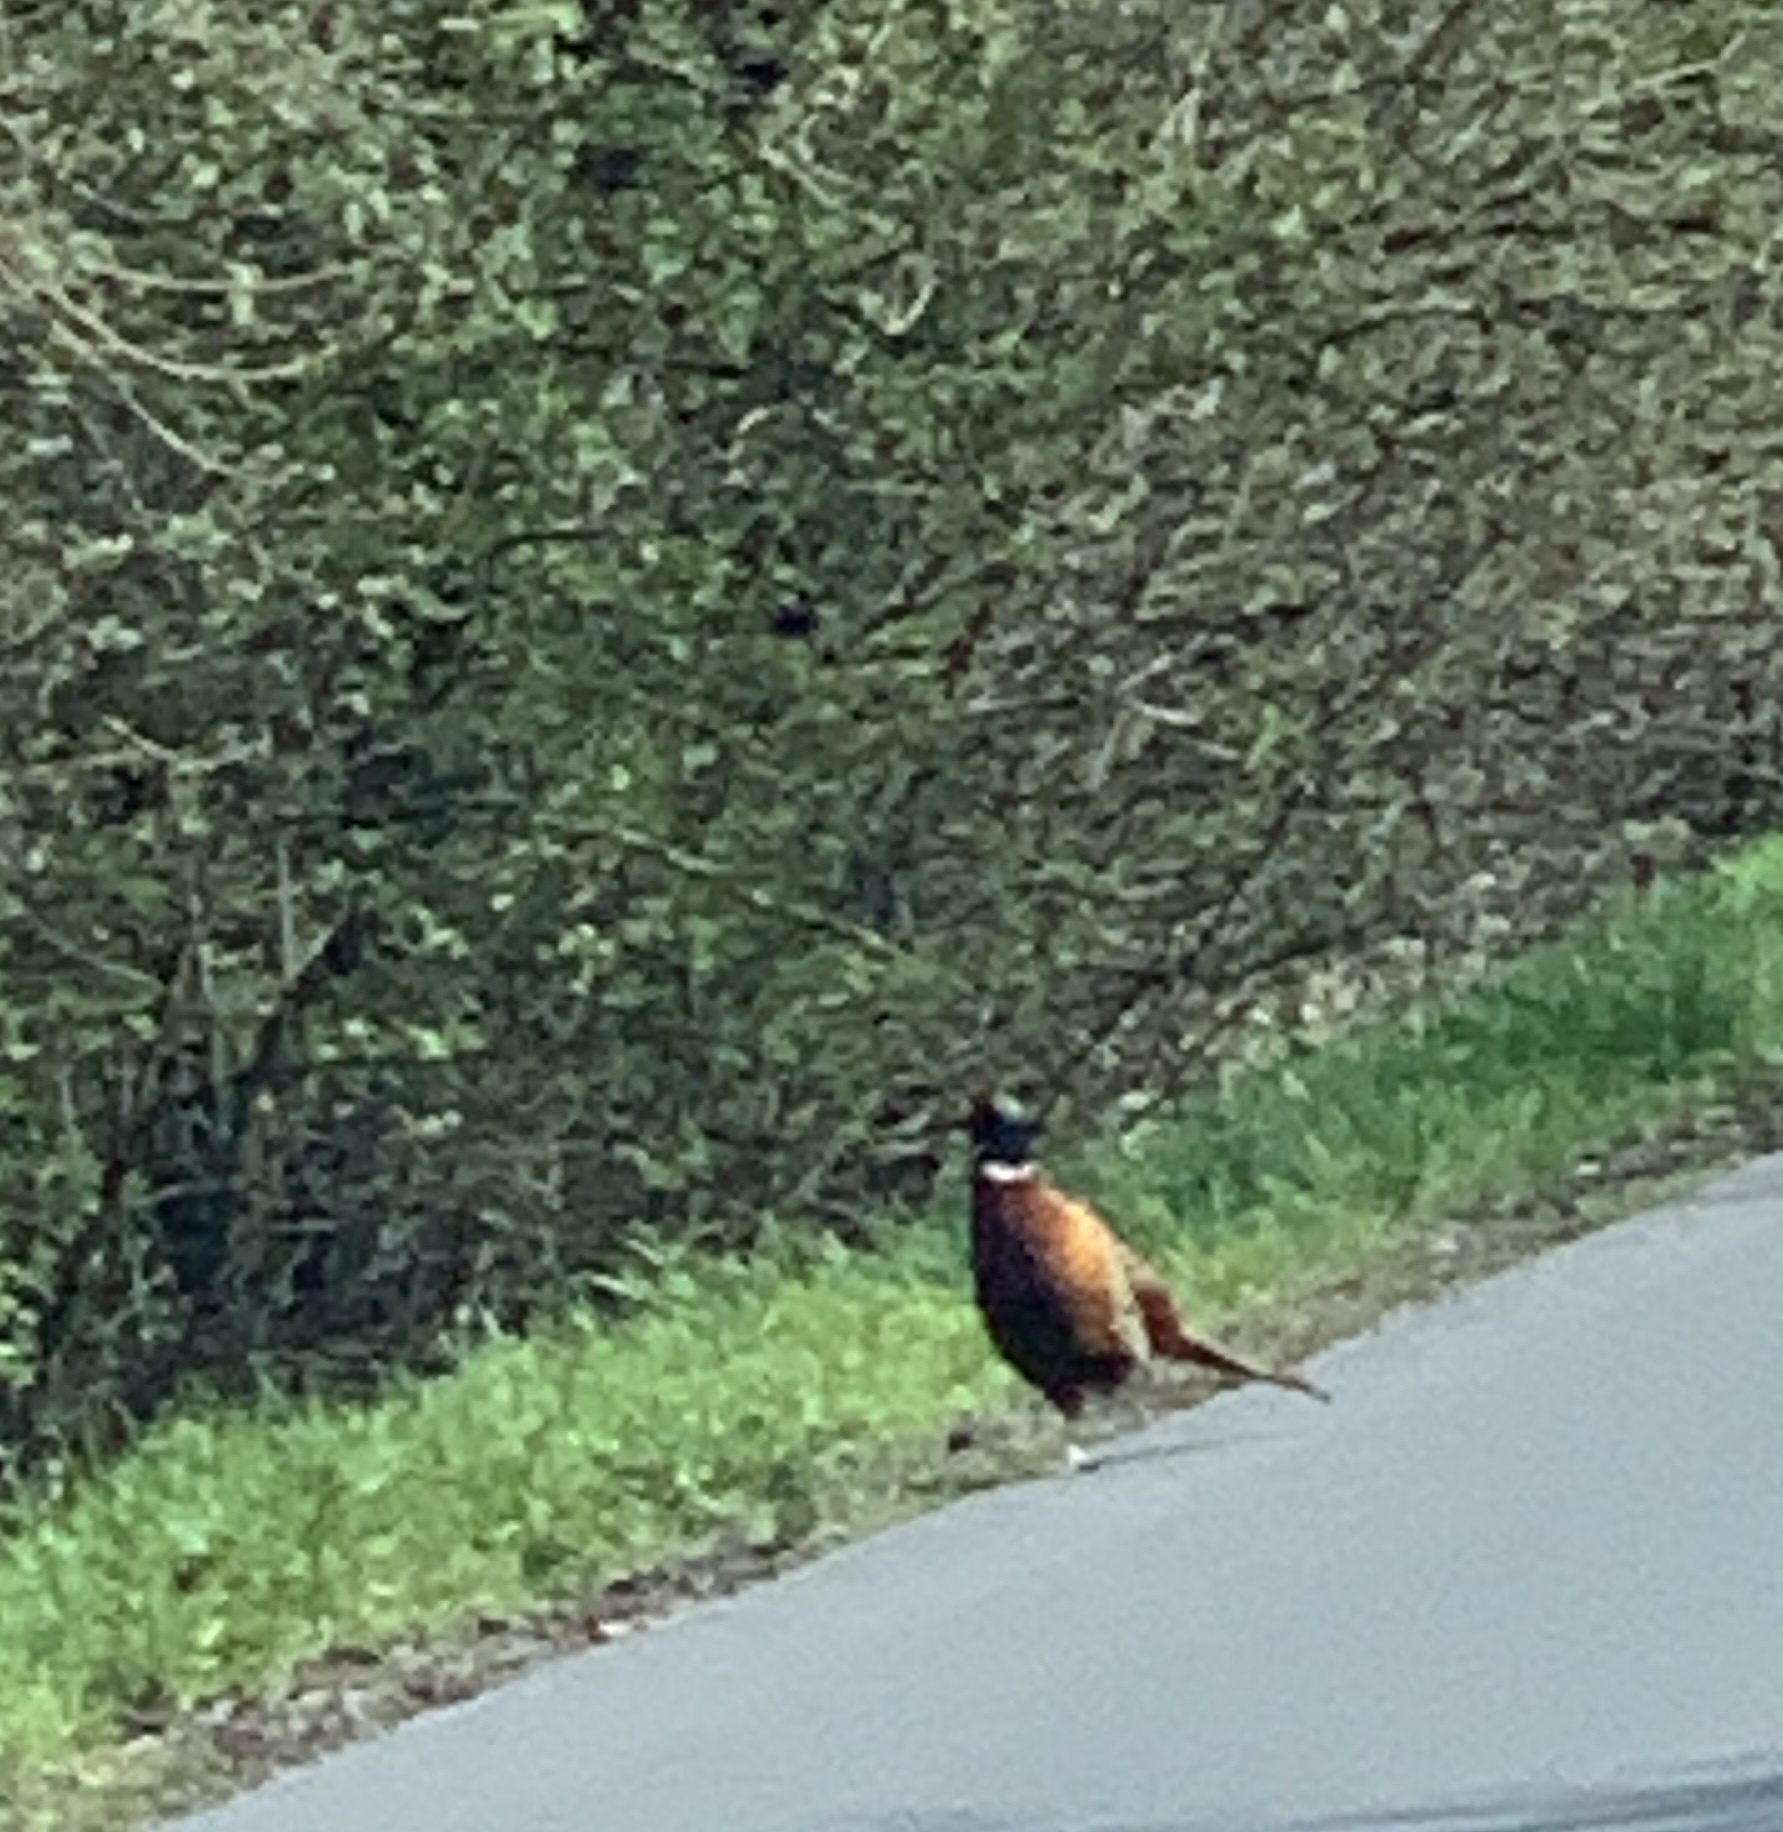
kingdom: Animalia
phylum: Chordata
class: Aves
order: Galliformes
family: Phasianidae
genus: Phasianus
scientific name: Phasianus colchicus
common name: Common pheasant
